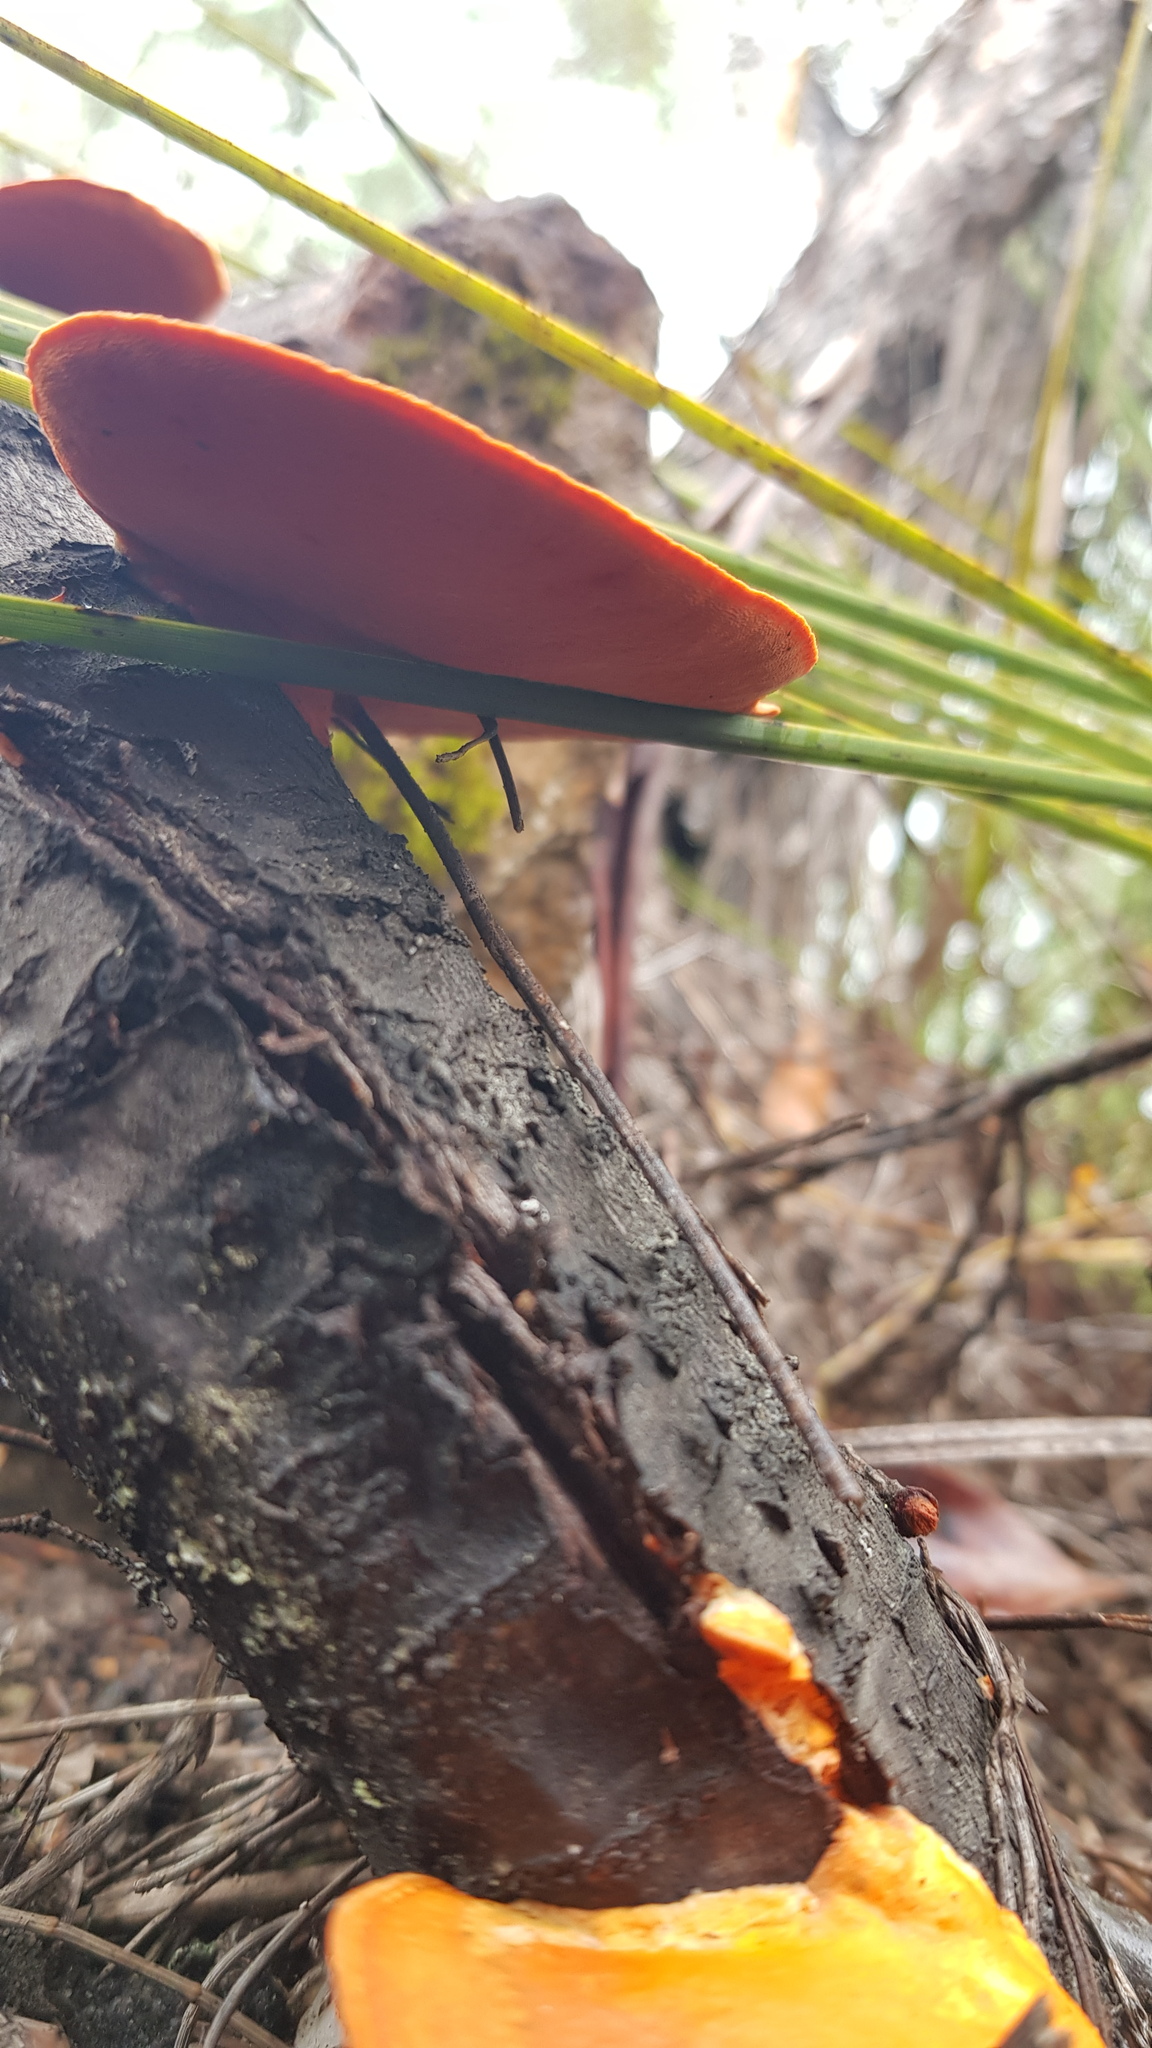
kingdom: Fungi
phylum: Basidiomycota
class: Agaricomycetes
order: Polyporales
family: Polyporaceae
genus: Trametes
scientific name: Trametes coccinea
